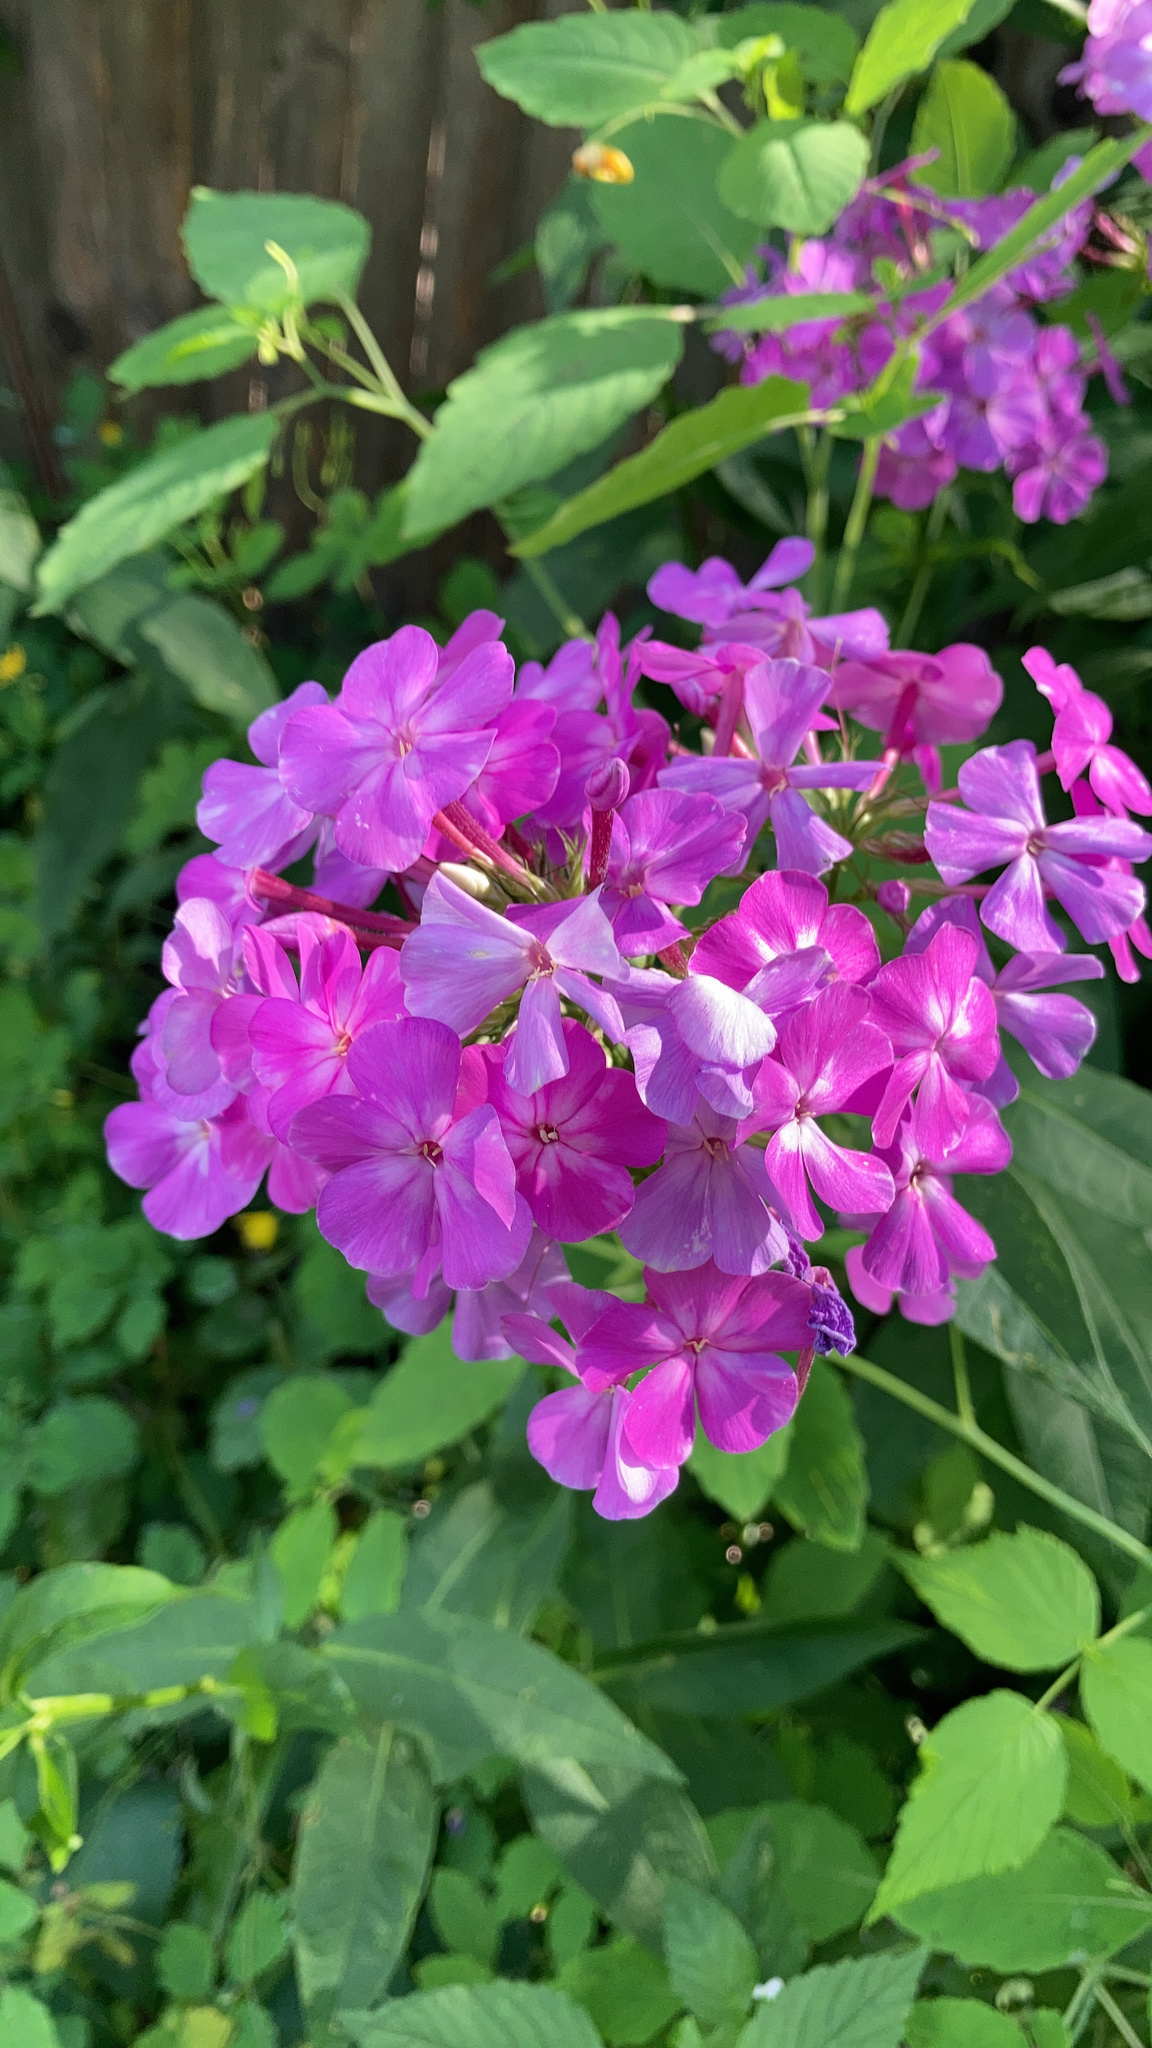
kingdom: Plantae
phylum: Tracheophyta
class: Magnoliopsida
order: Ericales
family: Polemoniaceae
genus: Phlox
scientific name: Phlox paniculata
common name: Fall phlox
